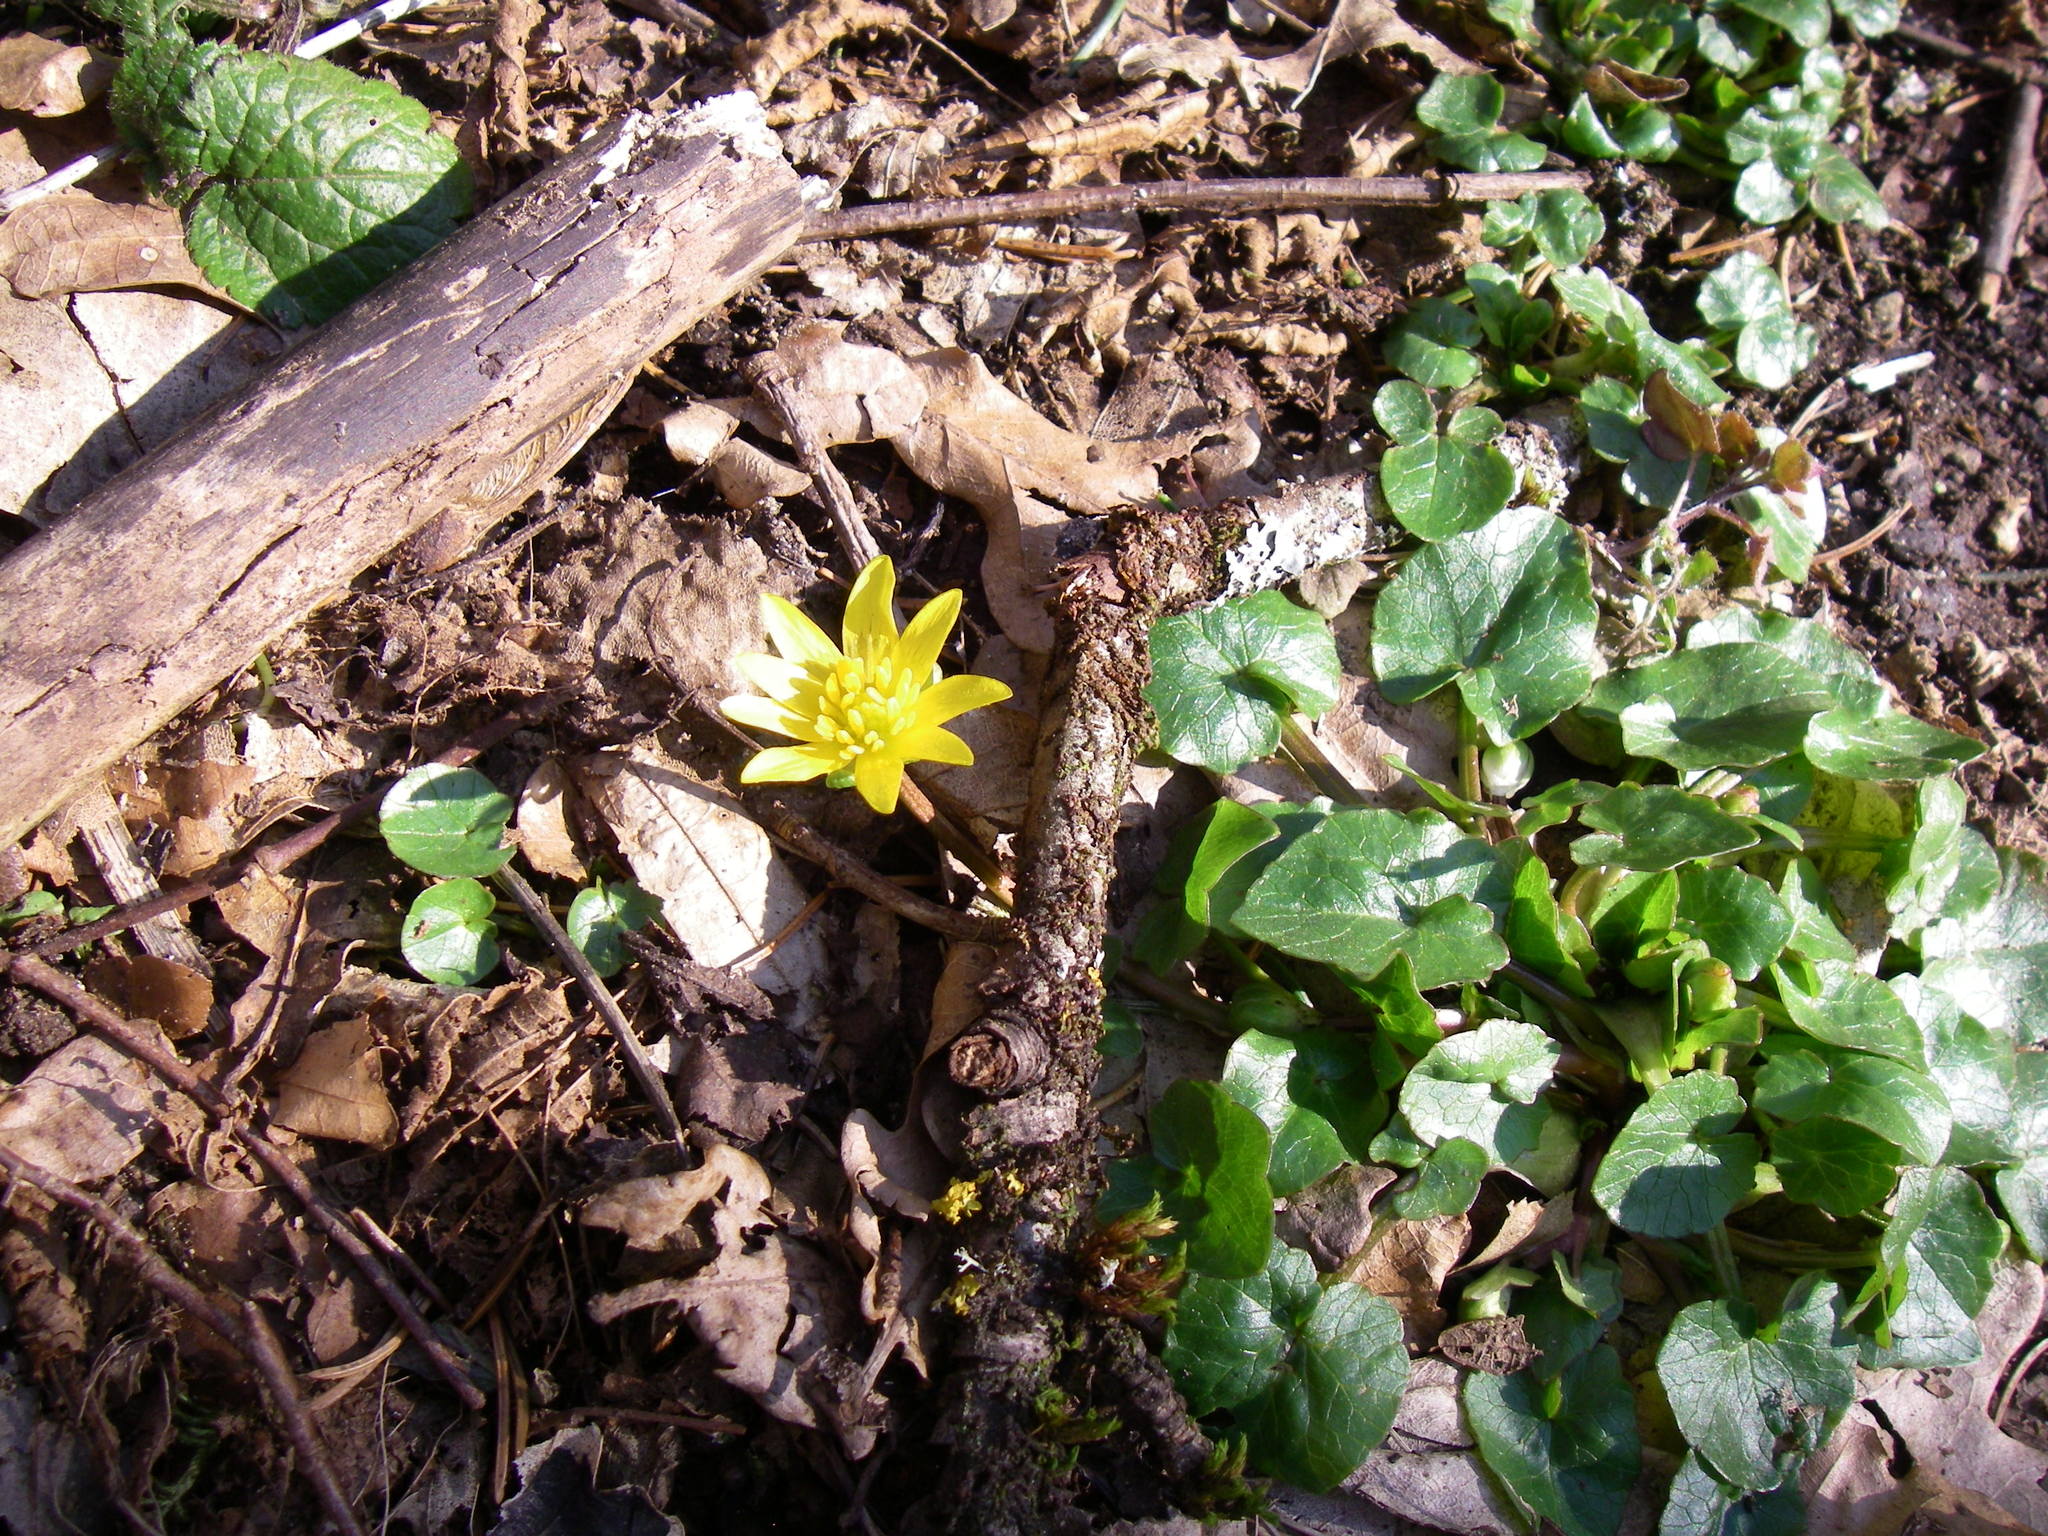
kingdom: Plantae
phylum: Tracheophyta
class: Magnoliopsida
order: Ranunculales
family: Ranunculaceae
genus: Ficaria
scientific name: Ficaria verna
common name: Lesser celandine
